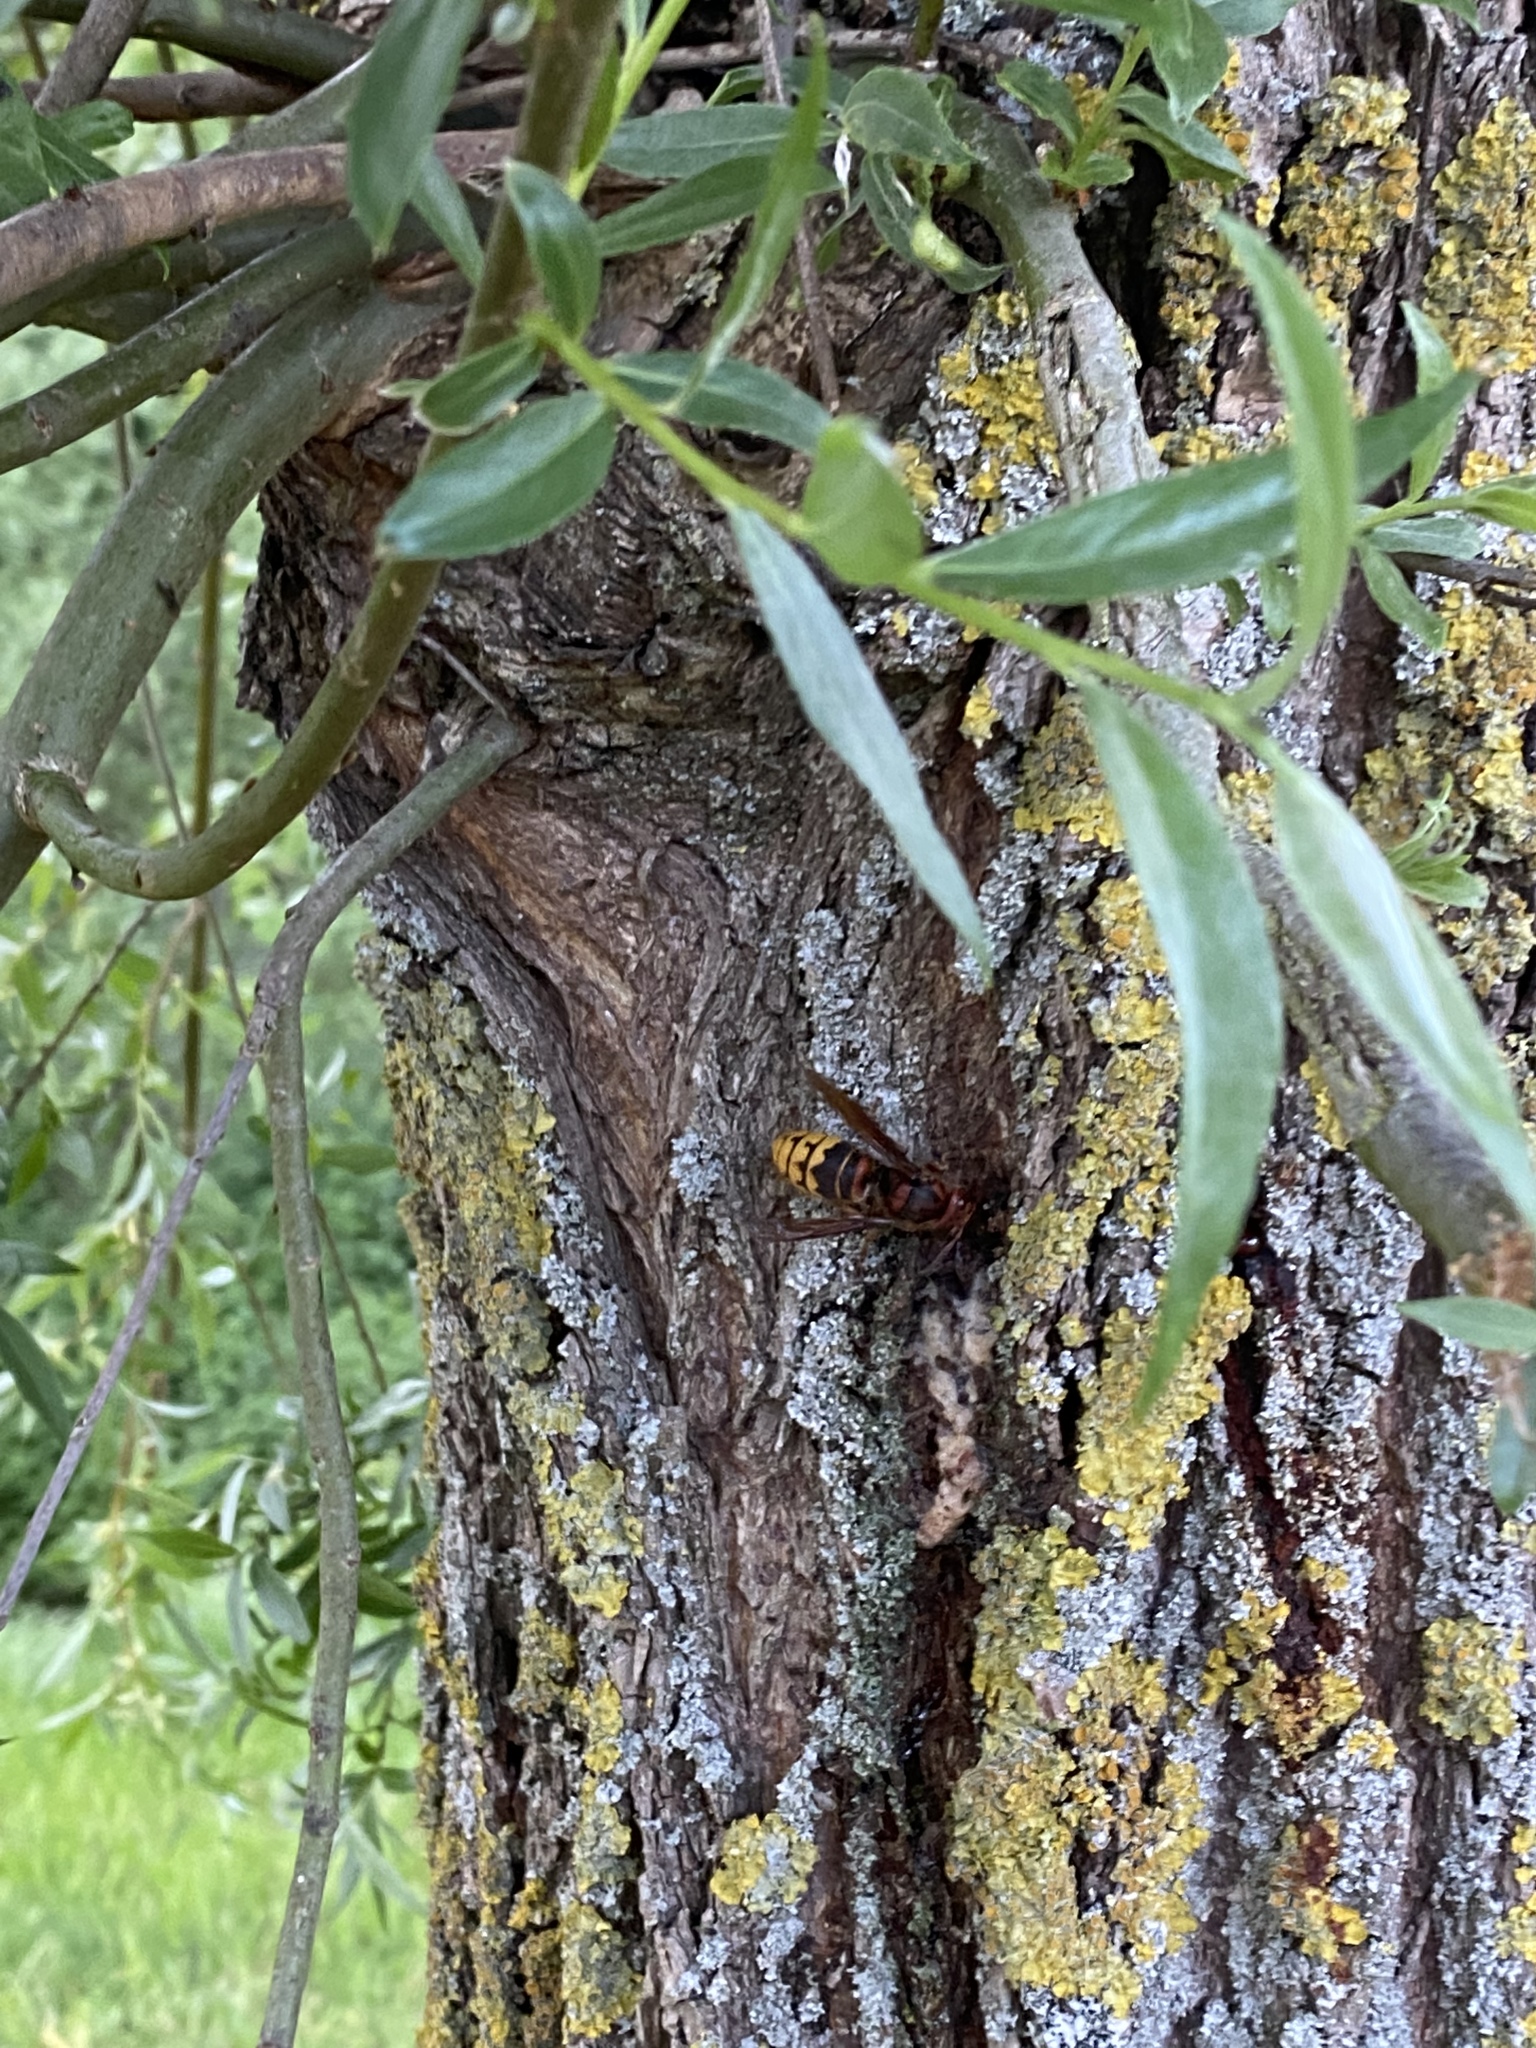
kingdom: Animalia
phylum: Arthropoda
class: Insecta
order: Hymenoptera
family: Vespidae
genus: Vespa
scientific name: Vespa crabro
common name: Hornet
